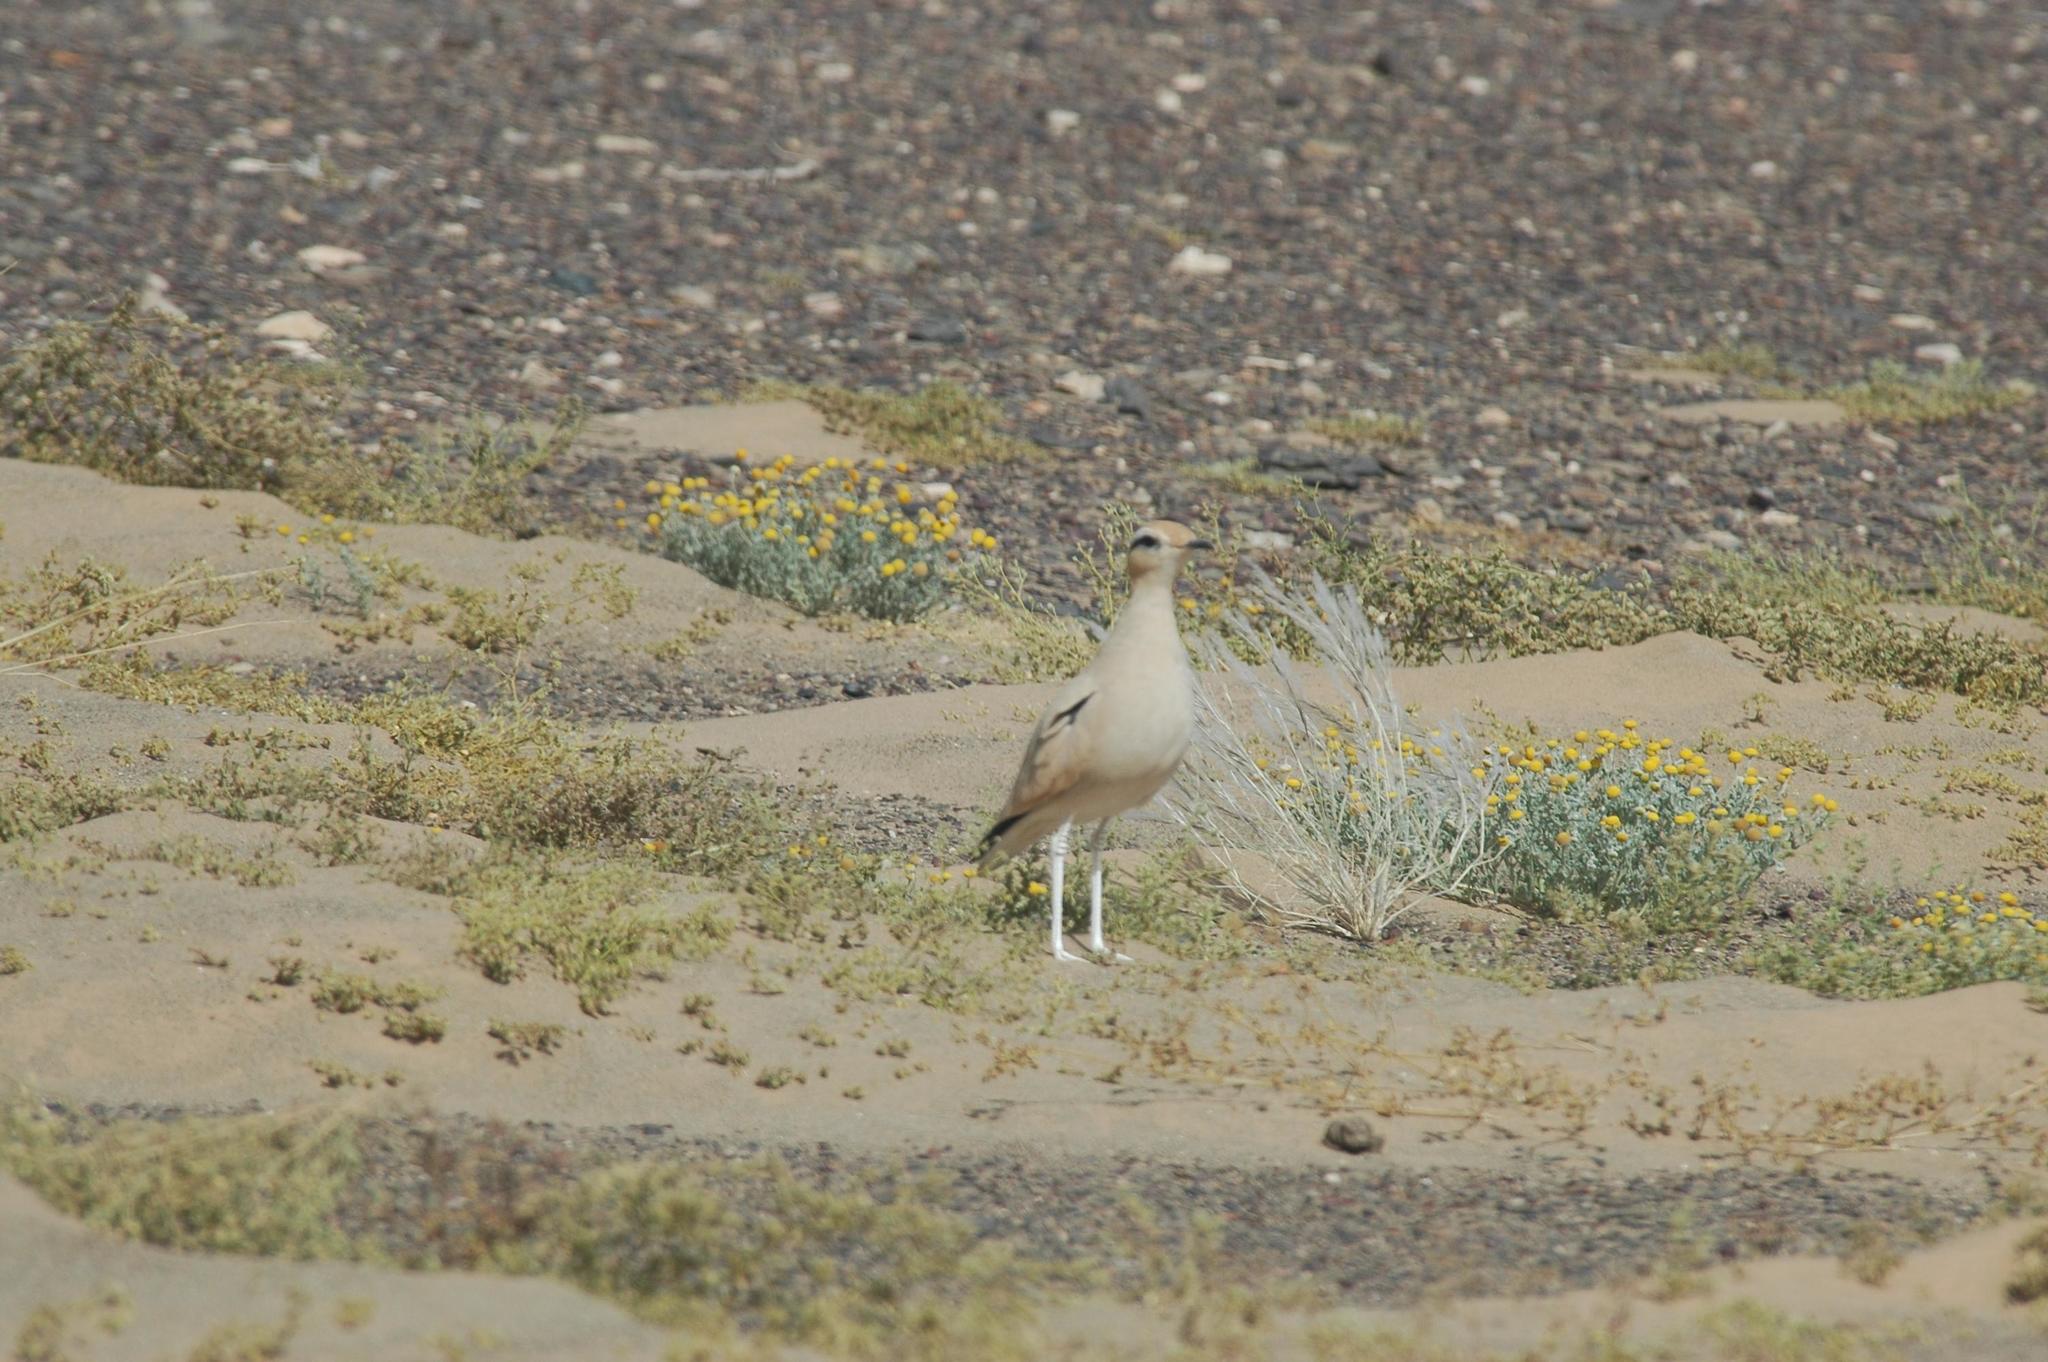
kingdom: Animalia
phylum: Chordata
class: Aves
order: Charadriiformes
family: Glareolidae
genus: Cursorius
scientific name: Cursorius cursor
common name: Cream-colored courser
